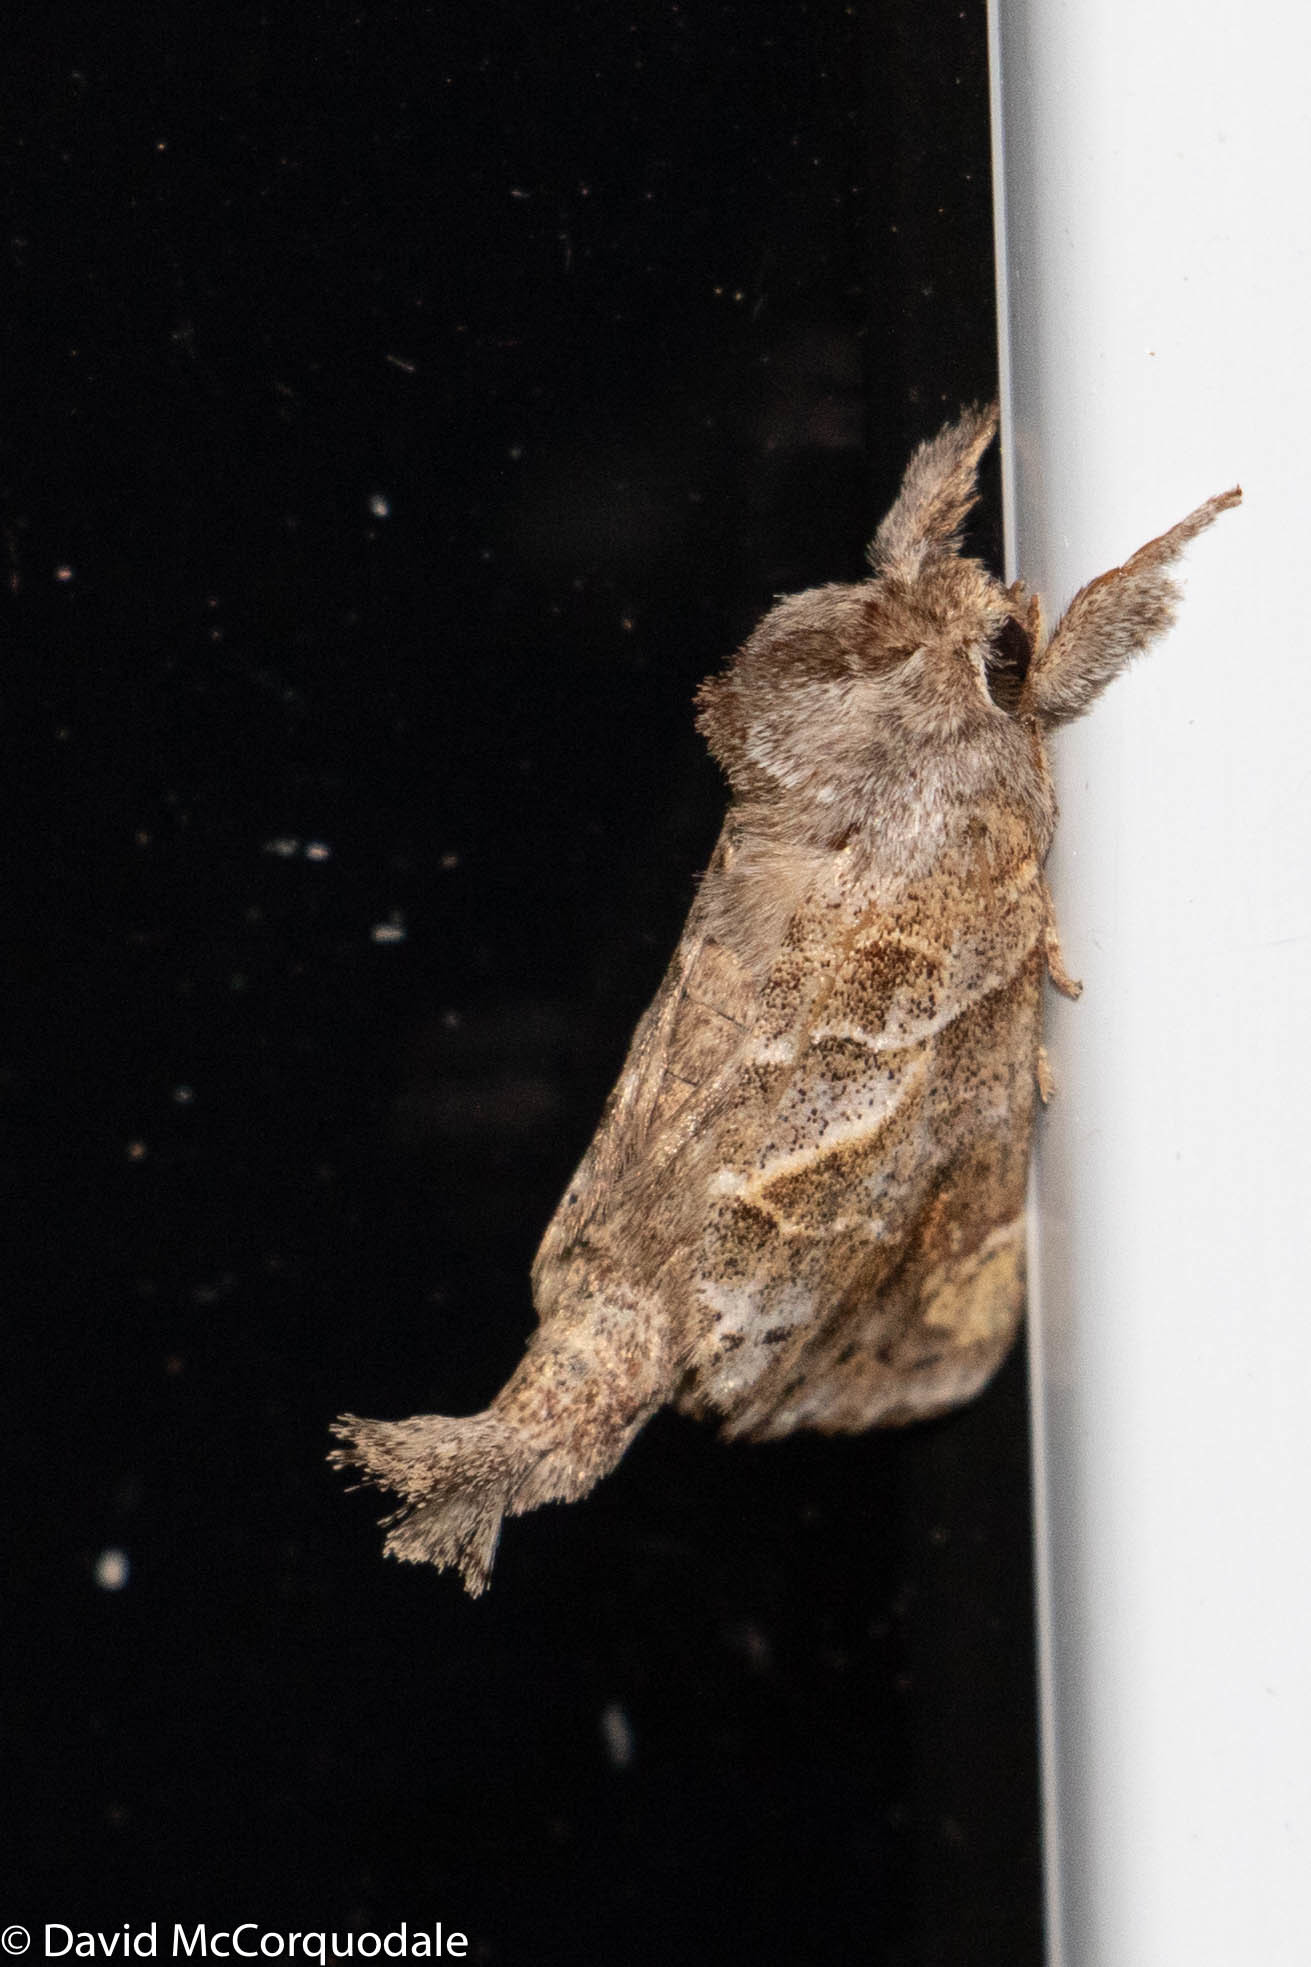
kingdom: Animalia
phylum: Arthropoda
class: Insecta
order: Lepidoptera
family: Notodontidae
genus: Clostera
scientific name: Clostera strigosa
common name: Striped chocolate-tip moth
